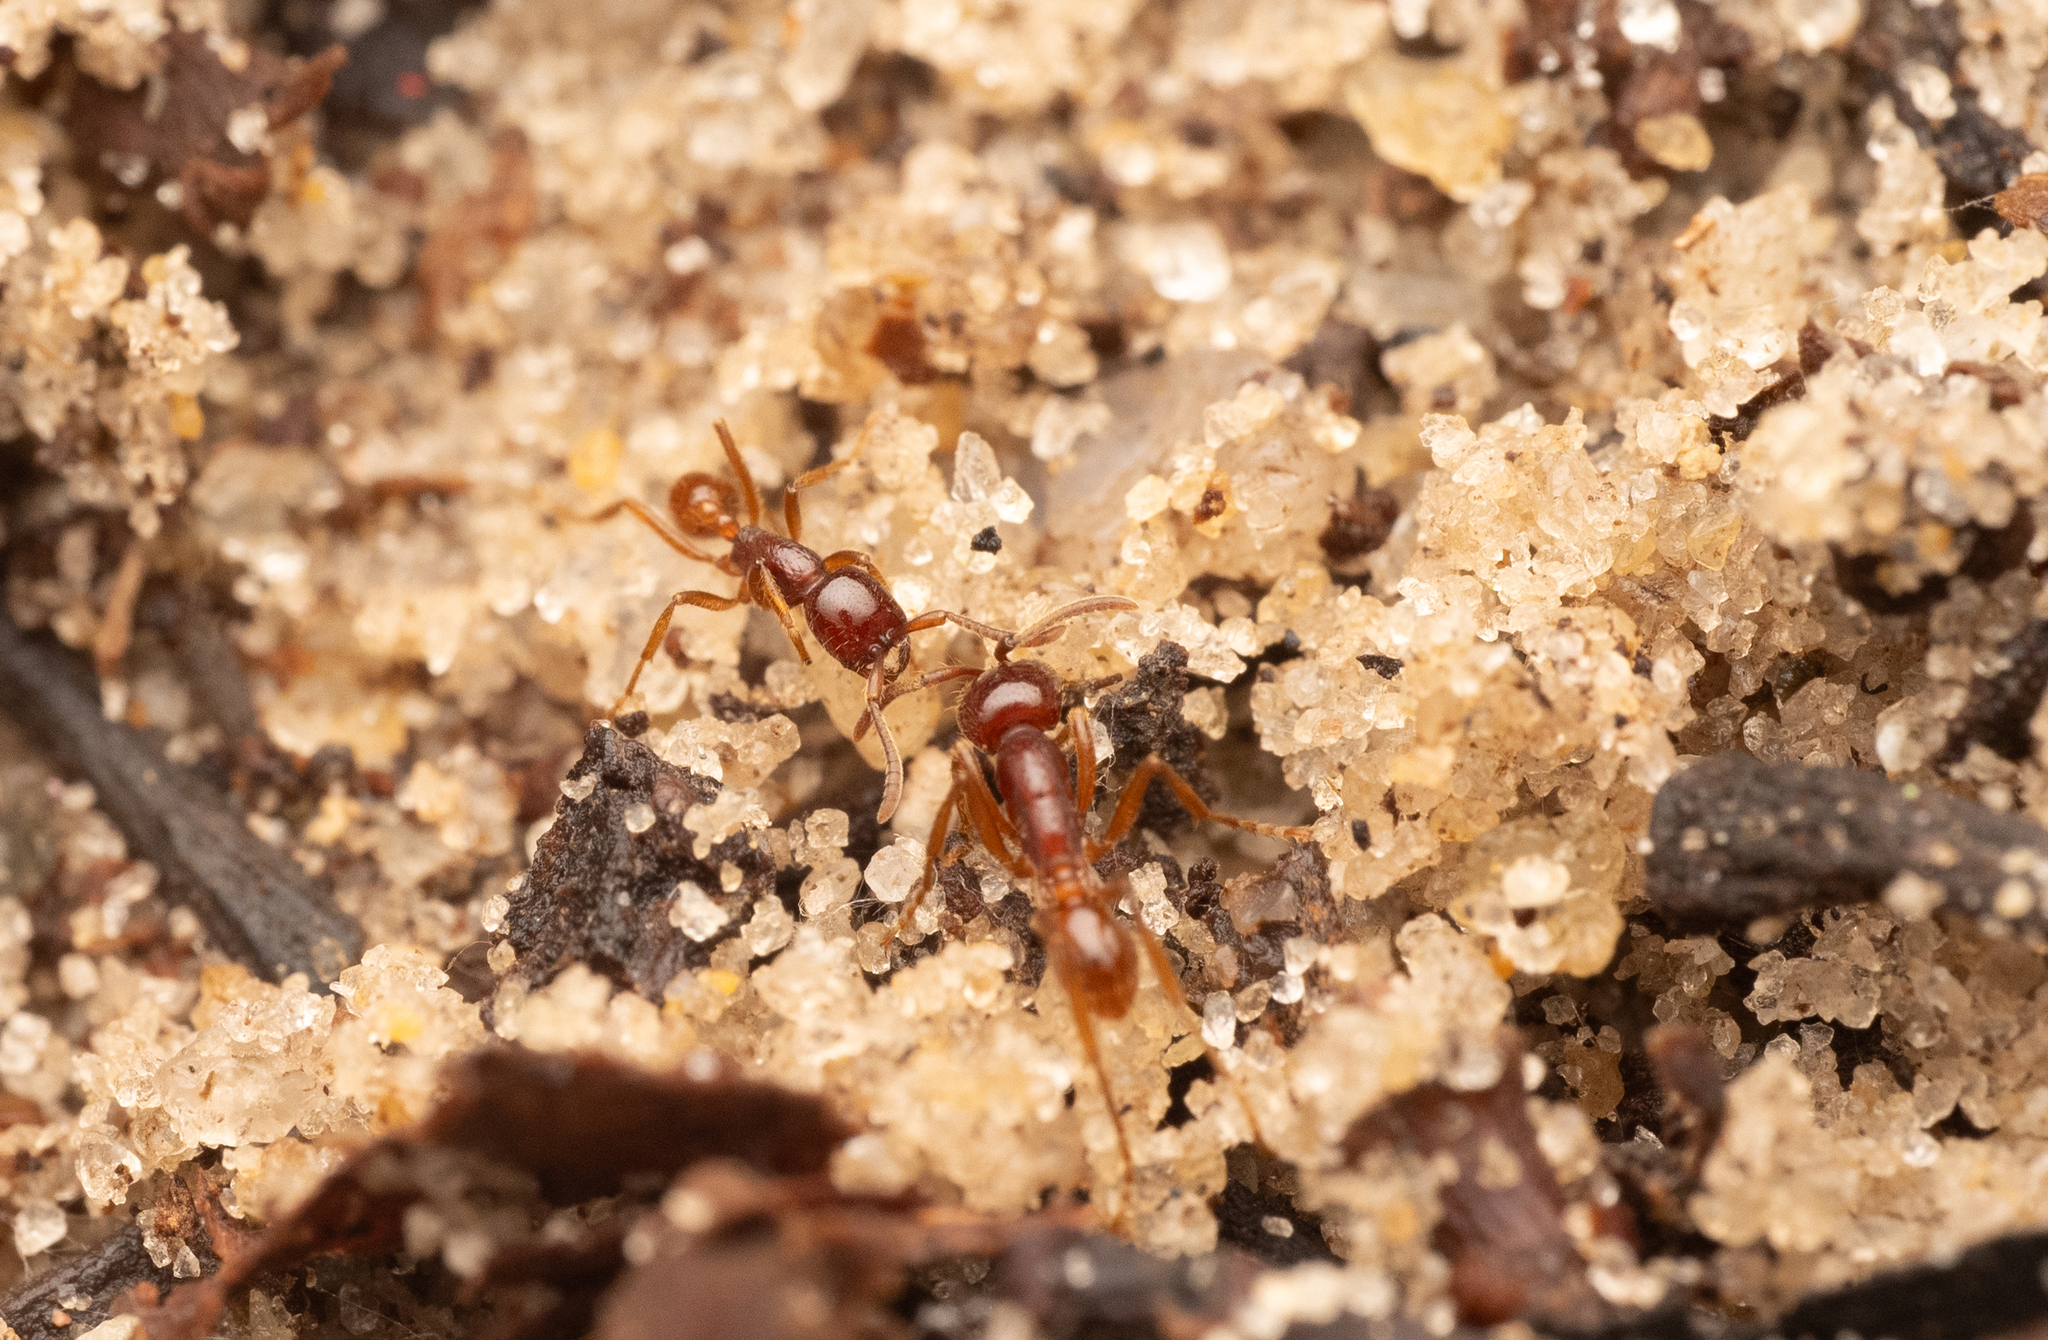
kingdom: Animalia
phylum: Arthropoda
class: Insecta
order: Hymenoptera
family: Formicidae
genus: Labidus
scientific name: Labidus coecus
